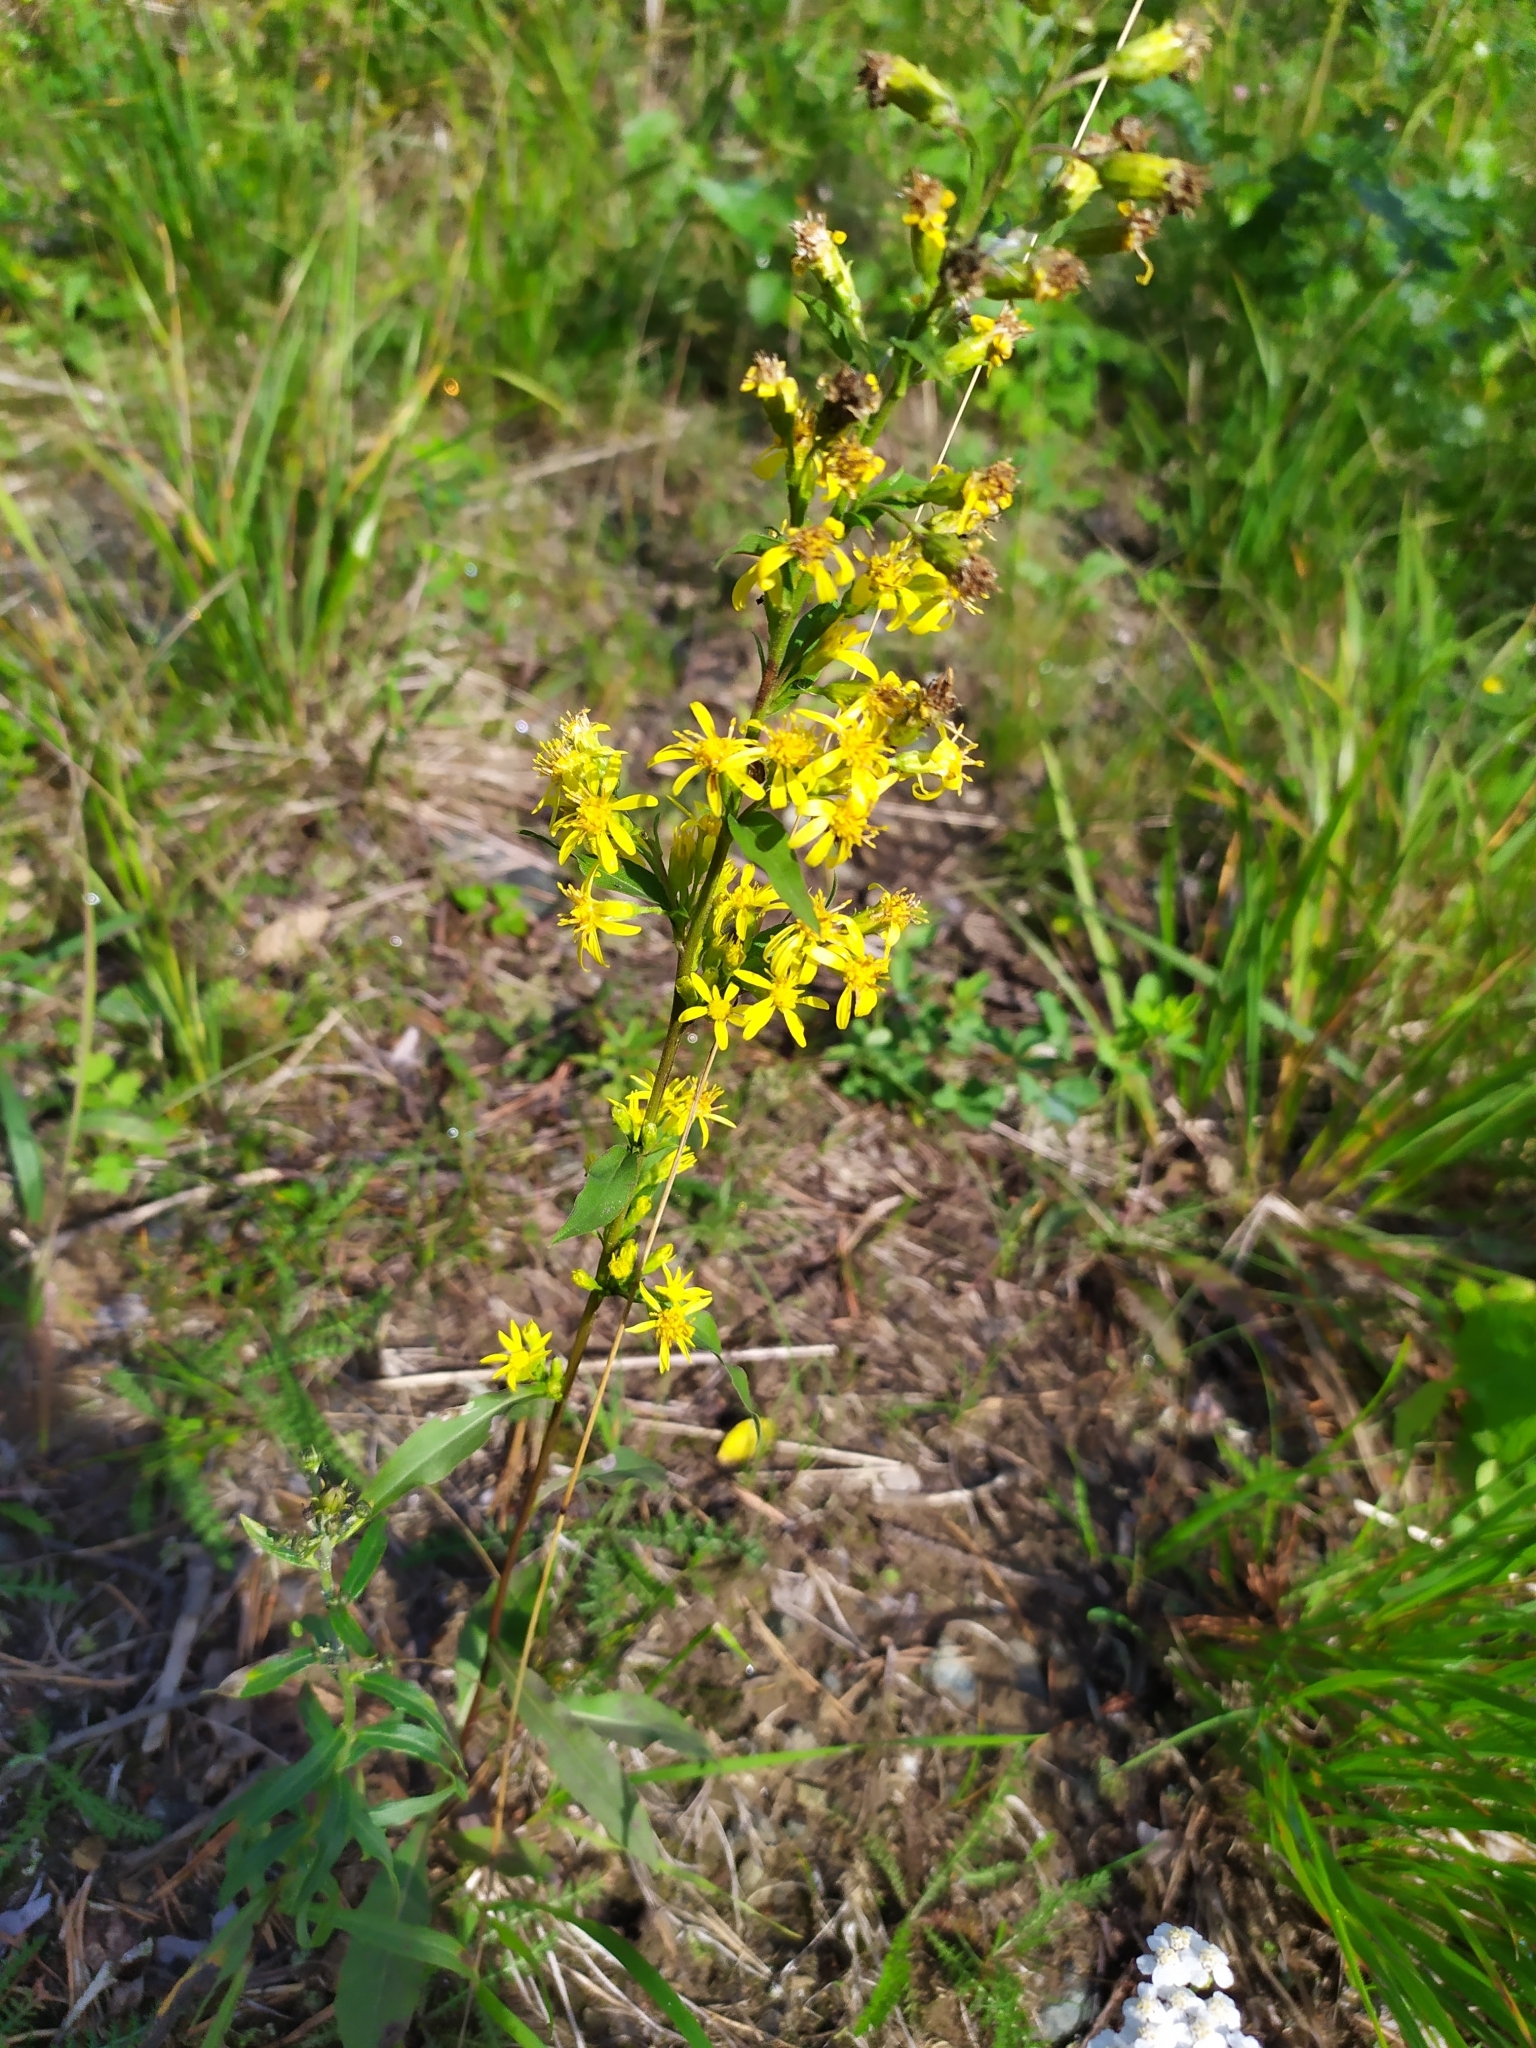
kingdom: Plantae
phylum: Tracheophyta
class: Magnoliopsida
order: Asterales
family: Asteraceae
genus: Solidago
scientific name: Solidago virgaurea
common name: Goldenrod
